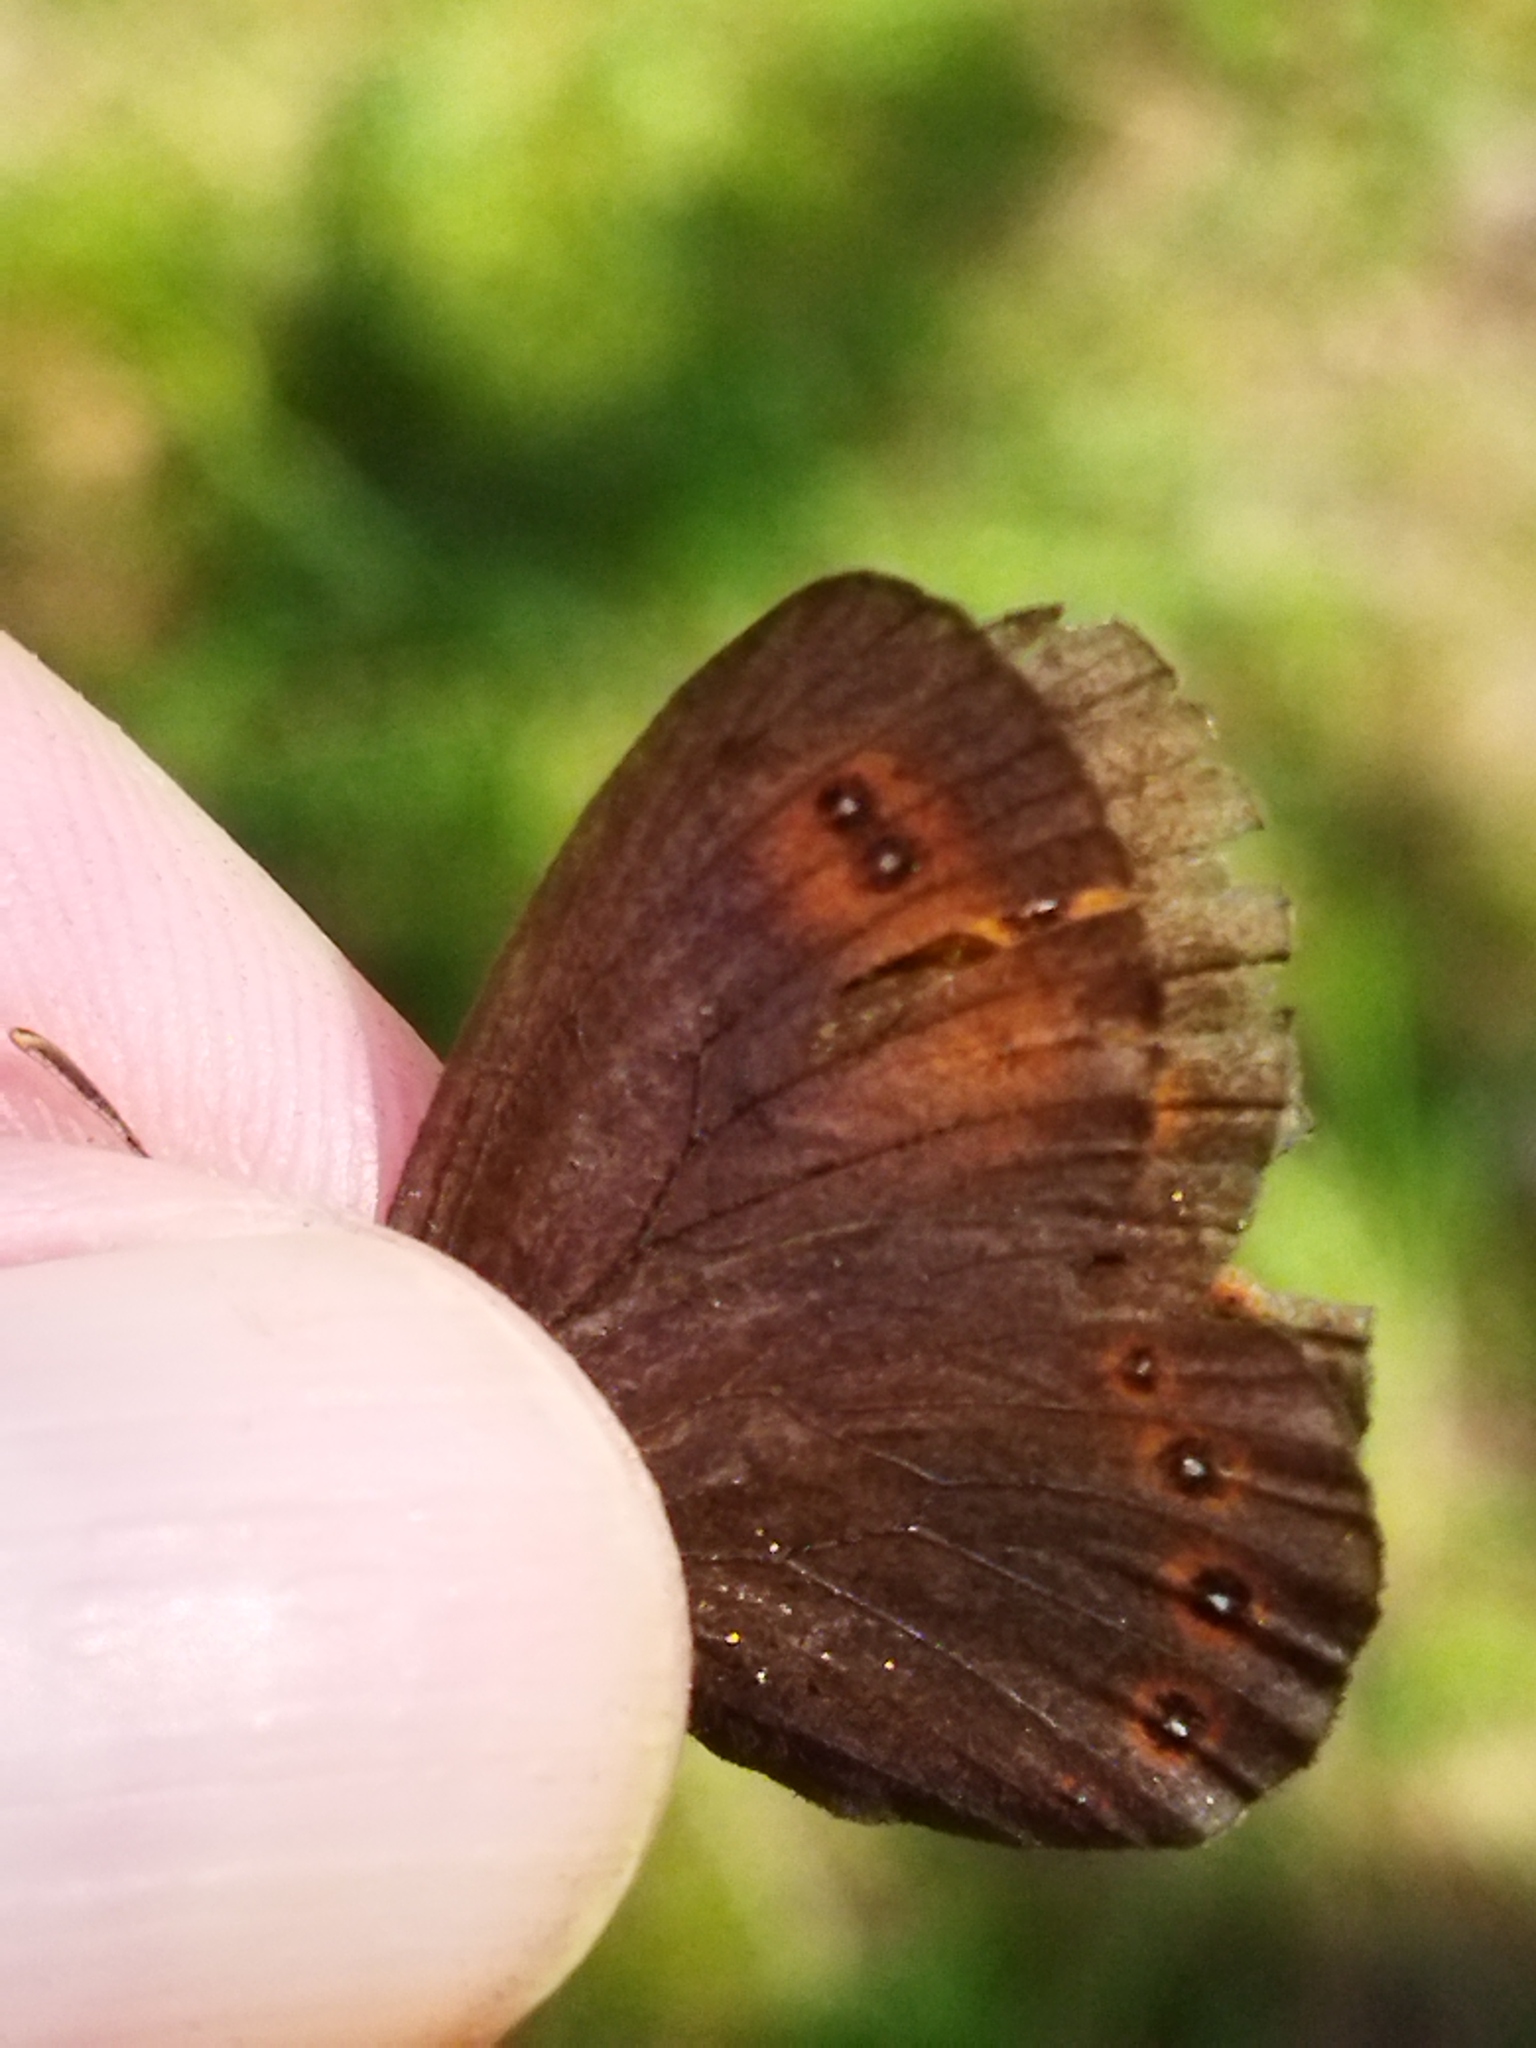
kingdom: Animalia
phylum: Arthropoda
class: Insecta
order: Lepidoptera
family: Nymphalidae
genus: Erebia
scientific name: Erebia oeme
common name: Bright-eyed ringlet
